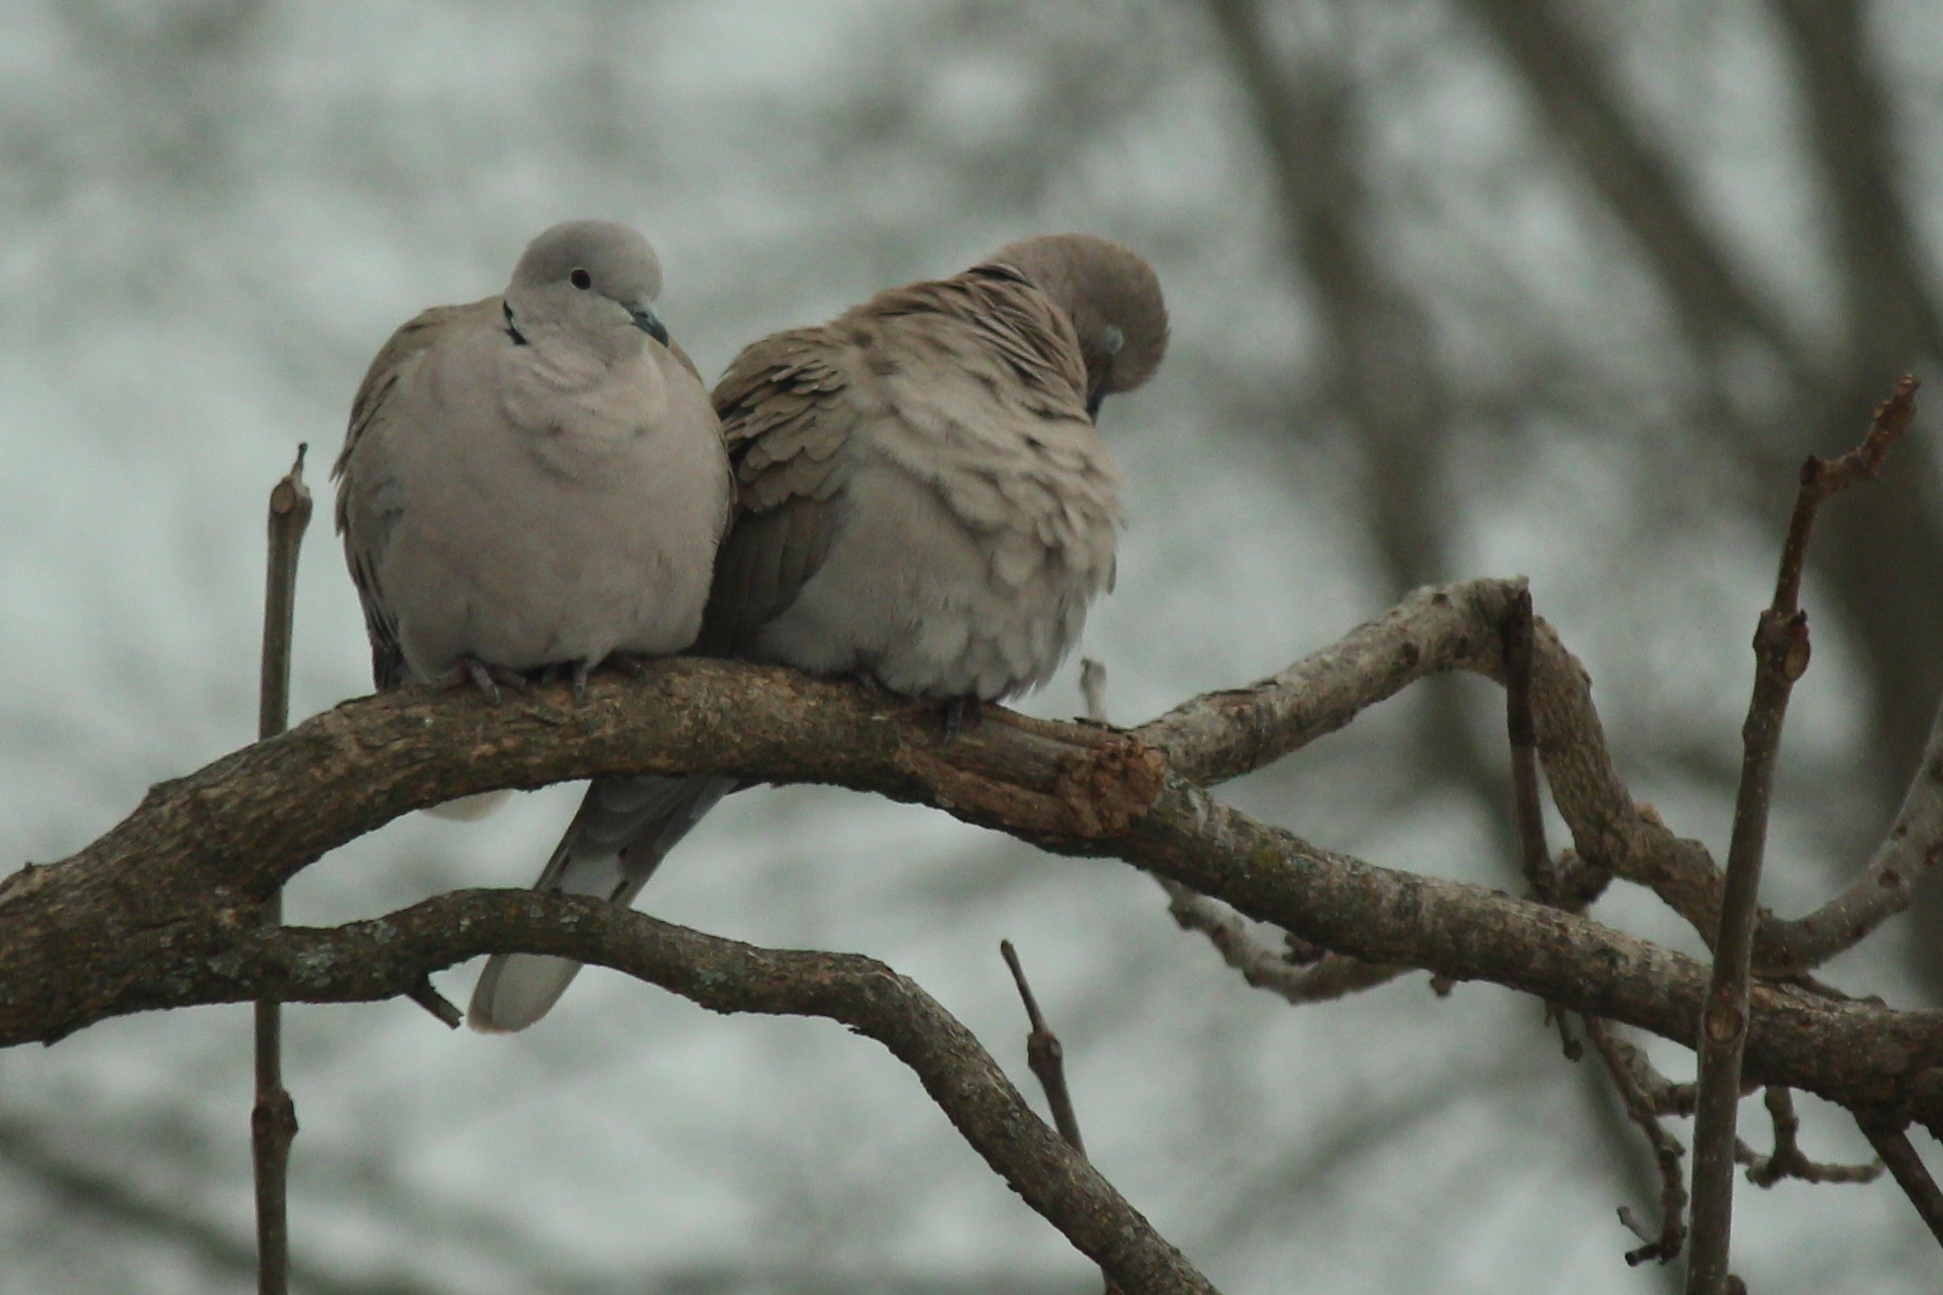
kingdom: Animalia
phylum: Chordata
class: Aves
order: Columbiformes
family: Columbidae
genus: Streptopelia
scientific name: Streptopelia decaocto
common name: Eurasian collared dove
